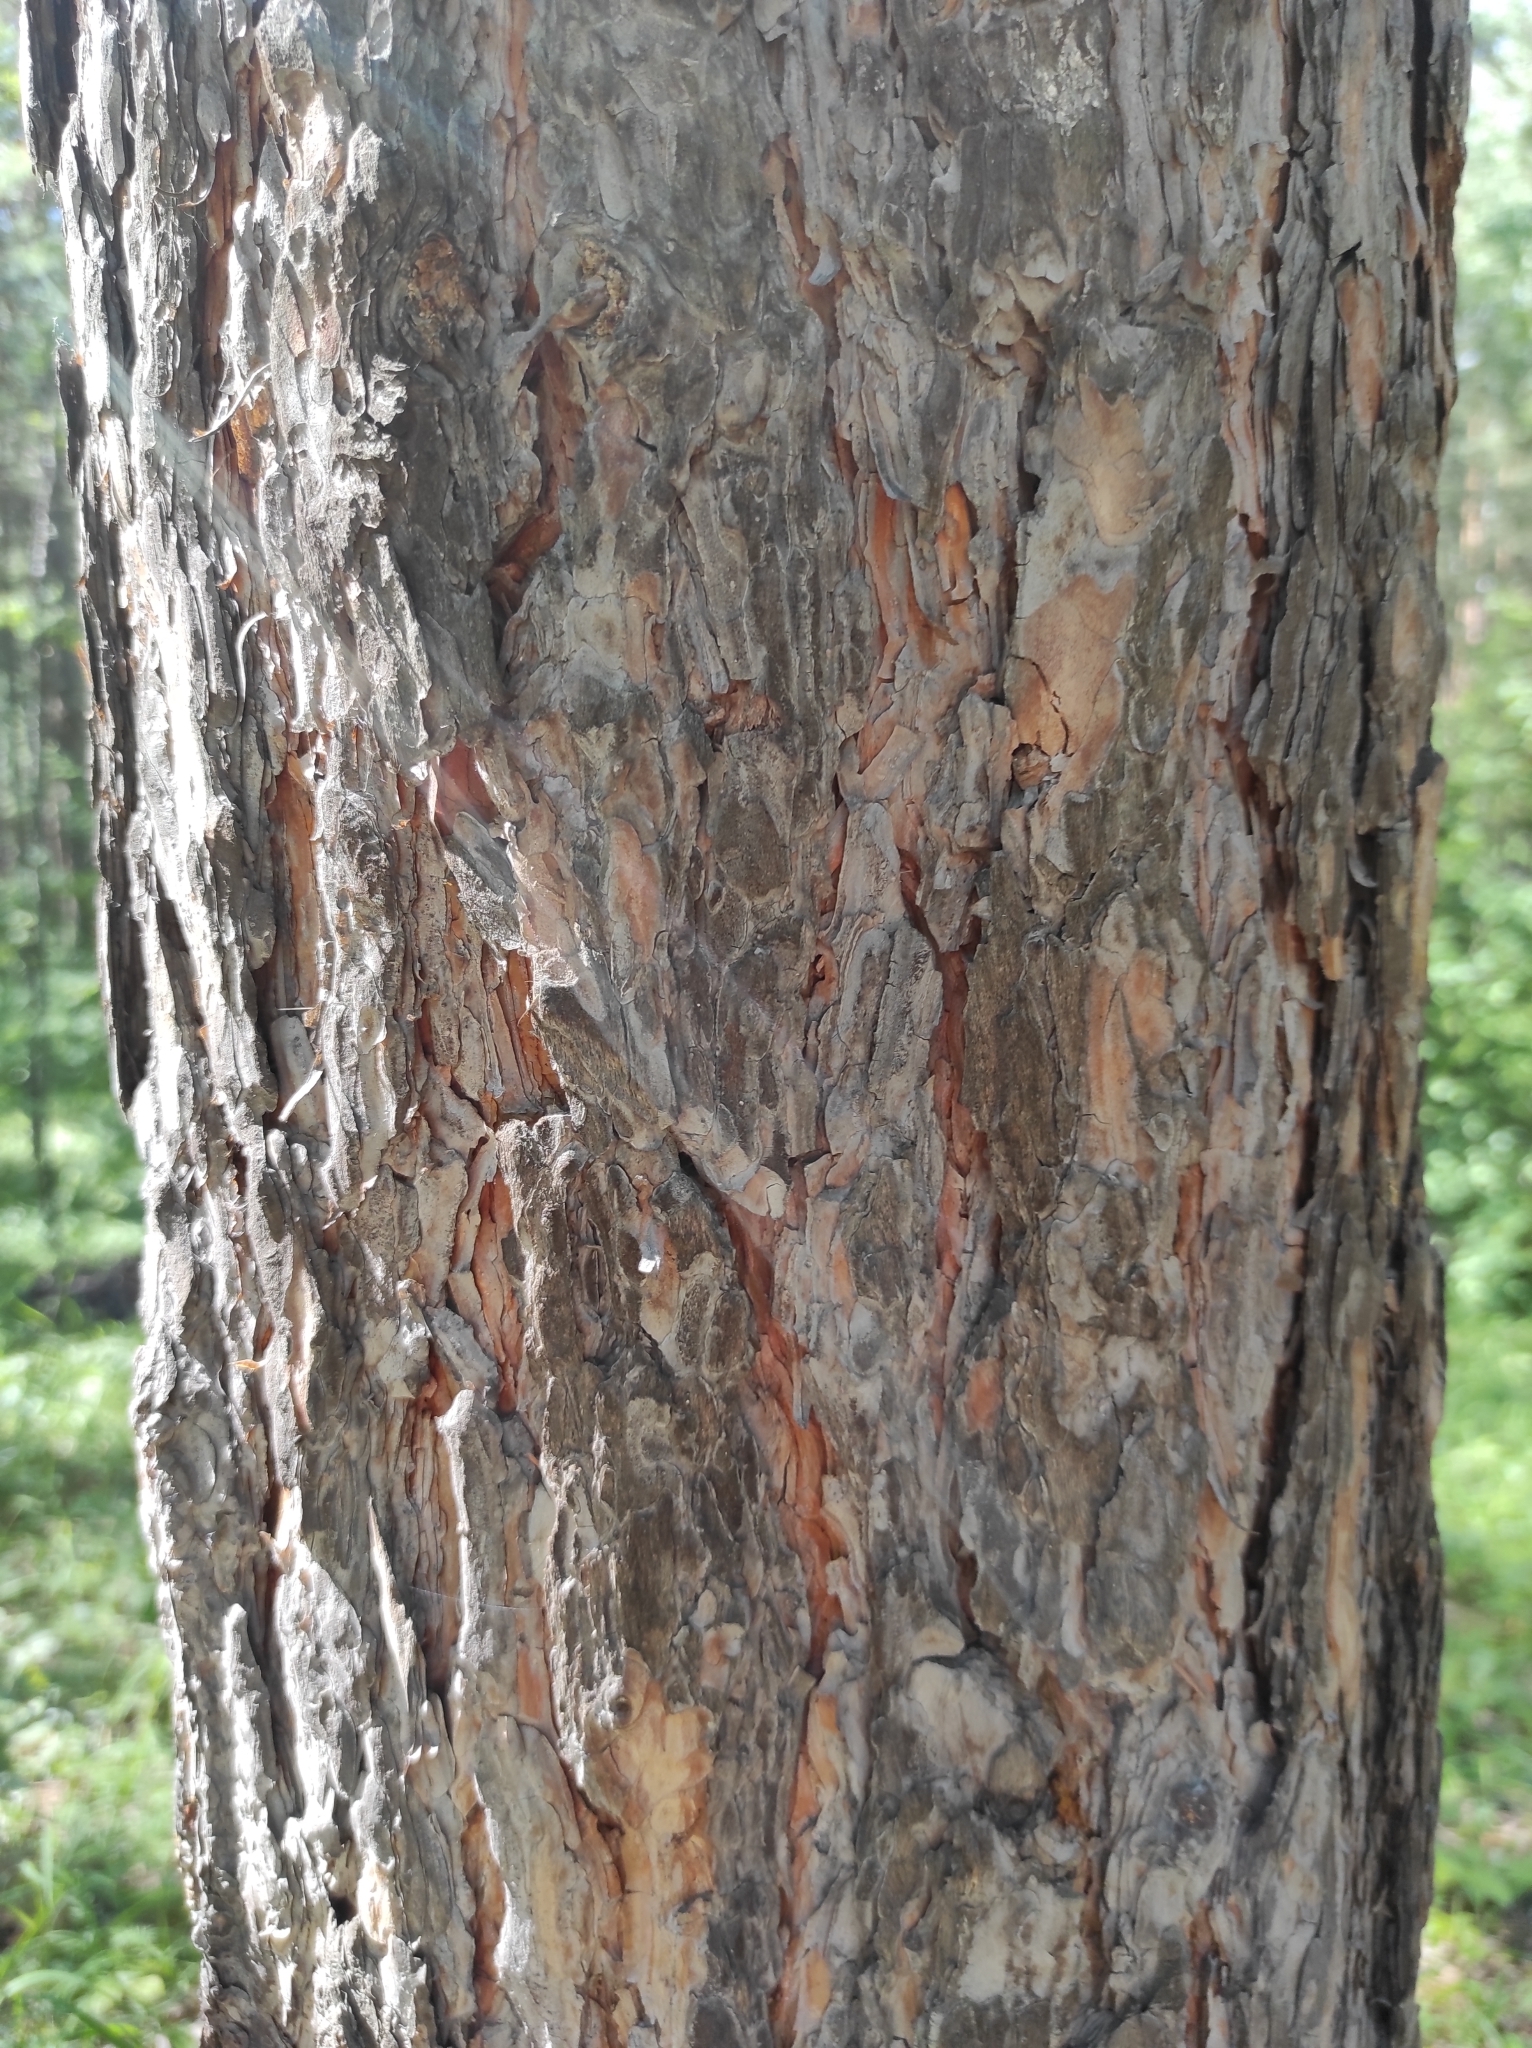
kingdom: Plantae
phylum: Tracheophyta
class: Pinopsida
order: Pinales
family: Pinaceae
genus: Pinus
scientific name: Pinus sylvestris
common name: Scots pine
